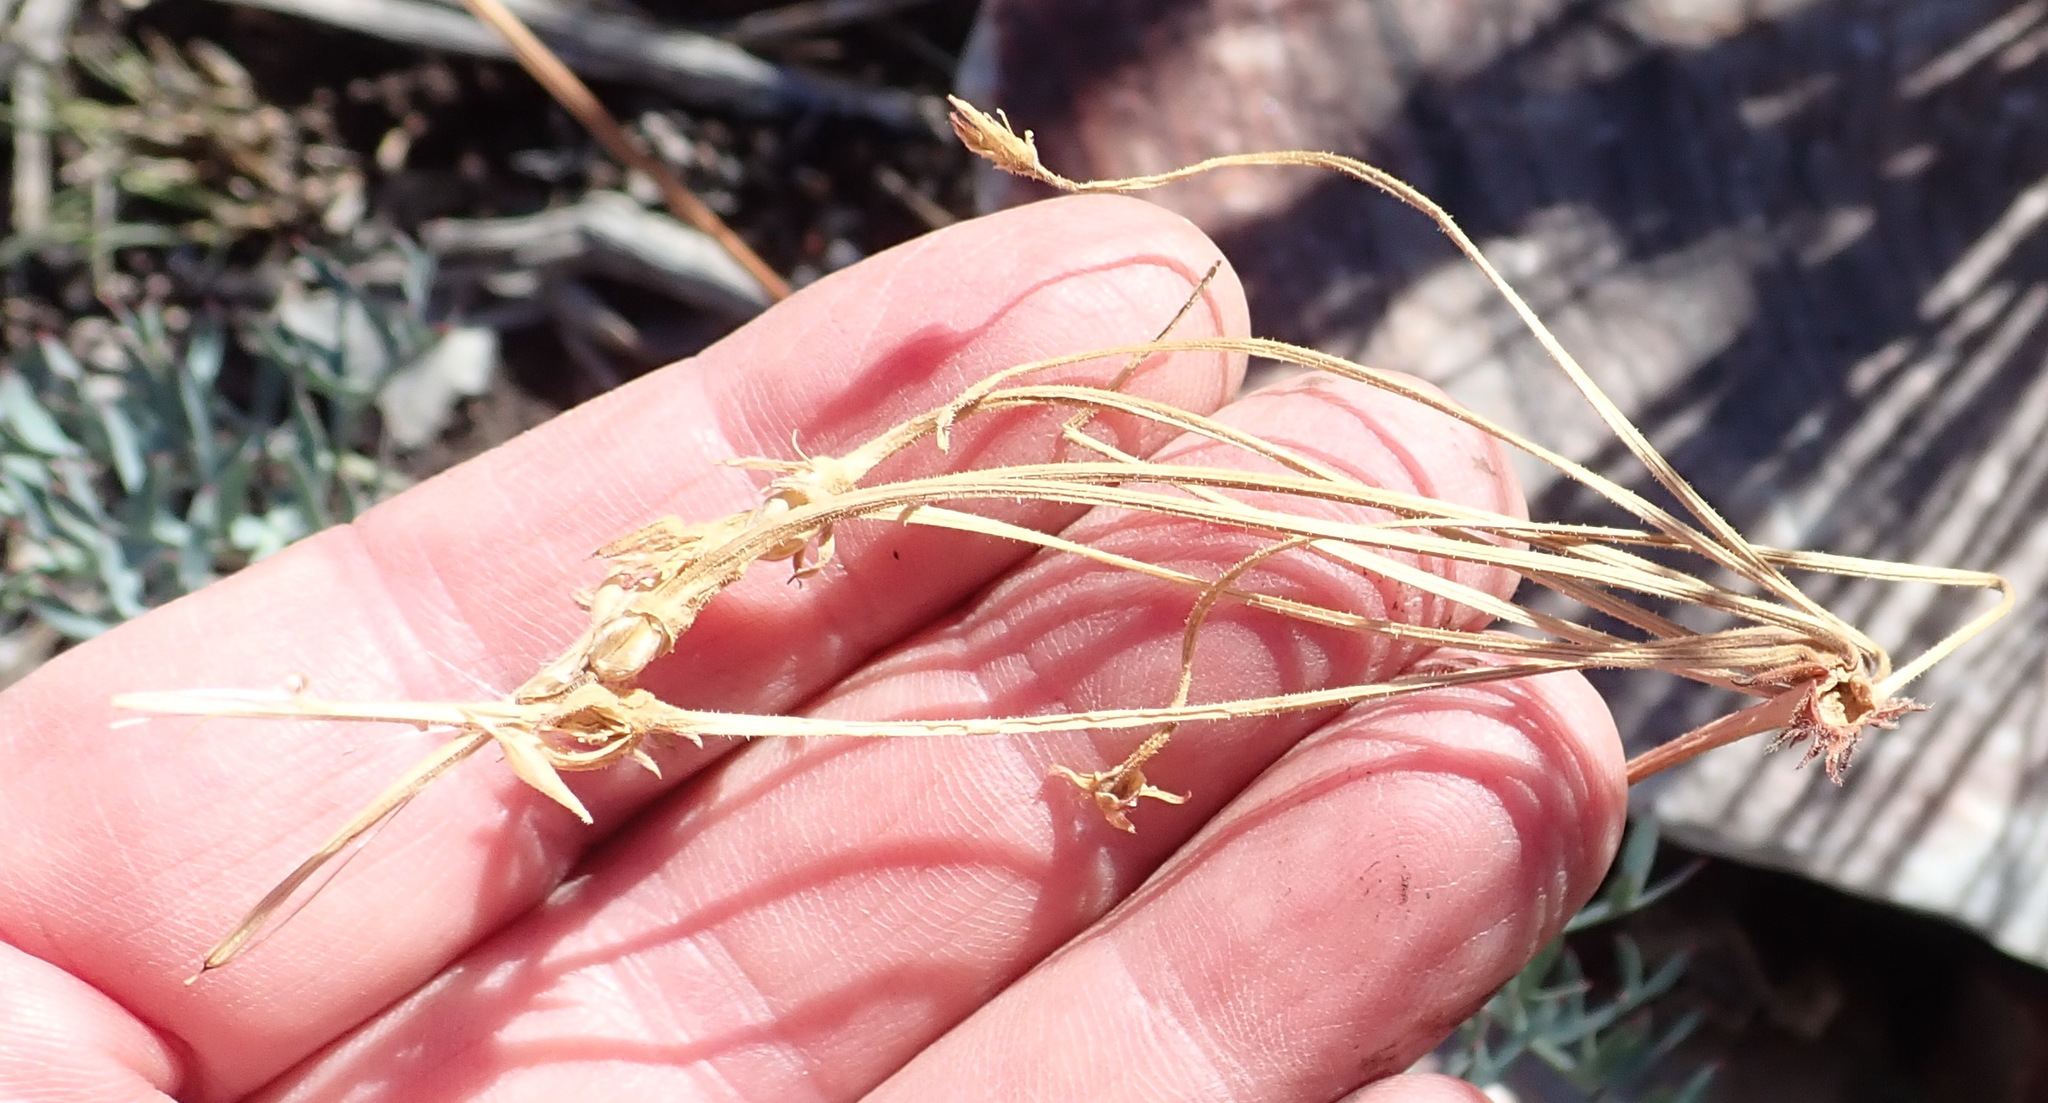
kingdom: Plantae
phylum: Tracheophyta
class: Magnoliopsida
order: Geraniales
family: Geraniaceae
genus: Pelargonium
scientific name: Pelargonium pillansii
